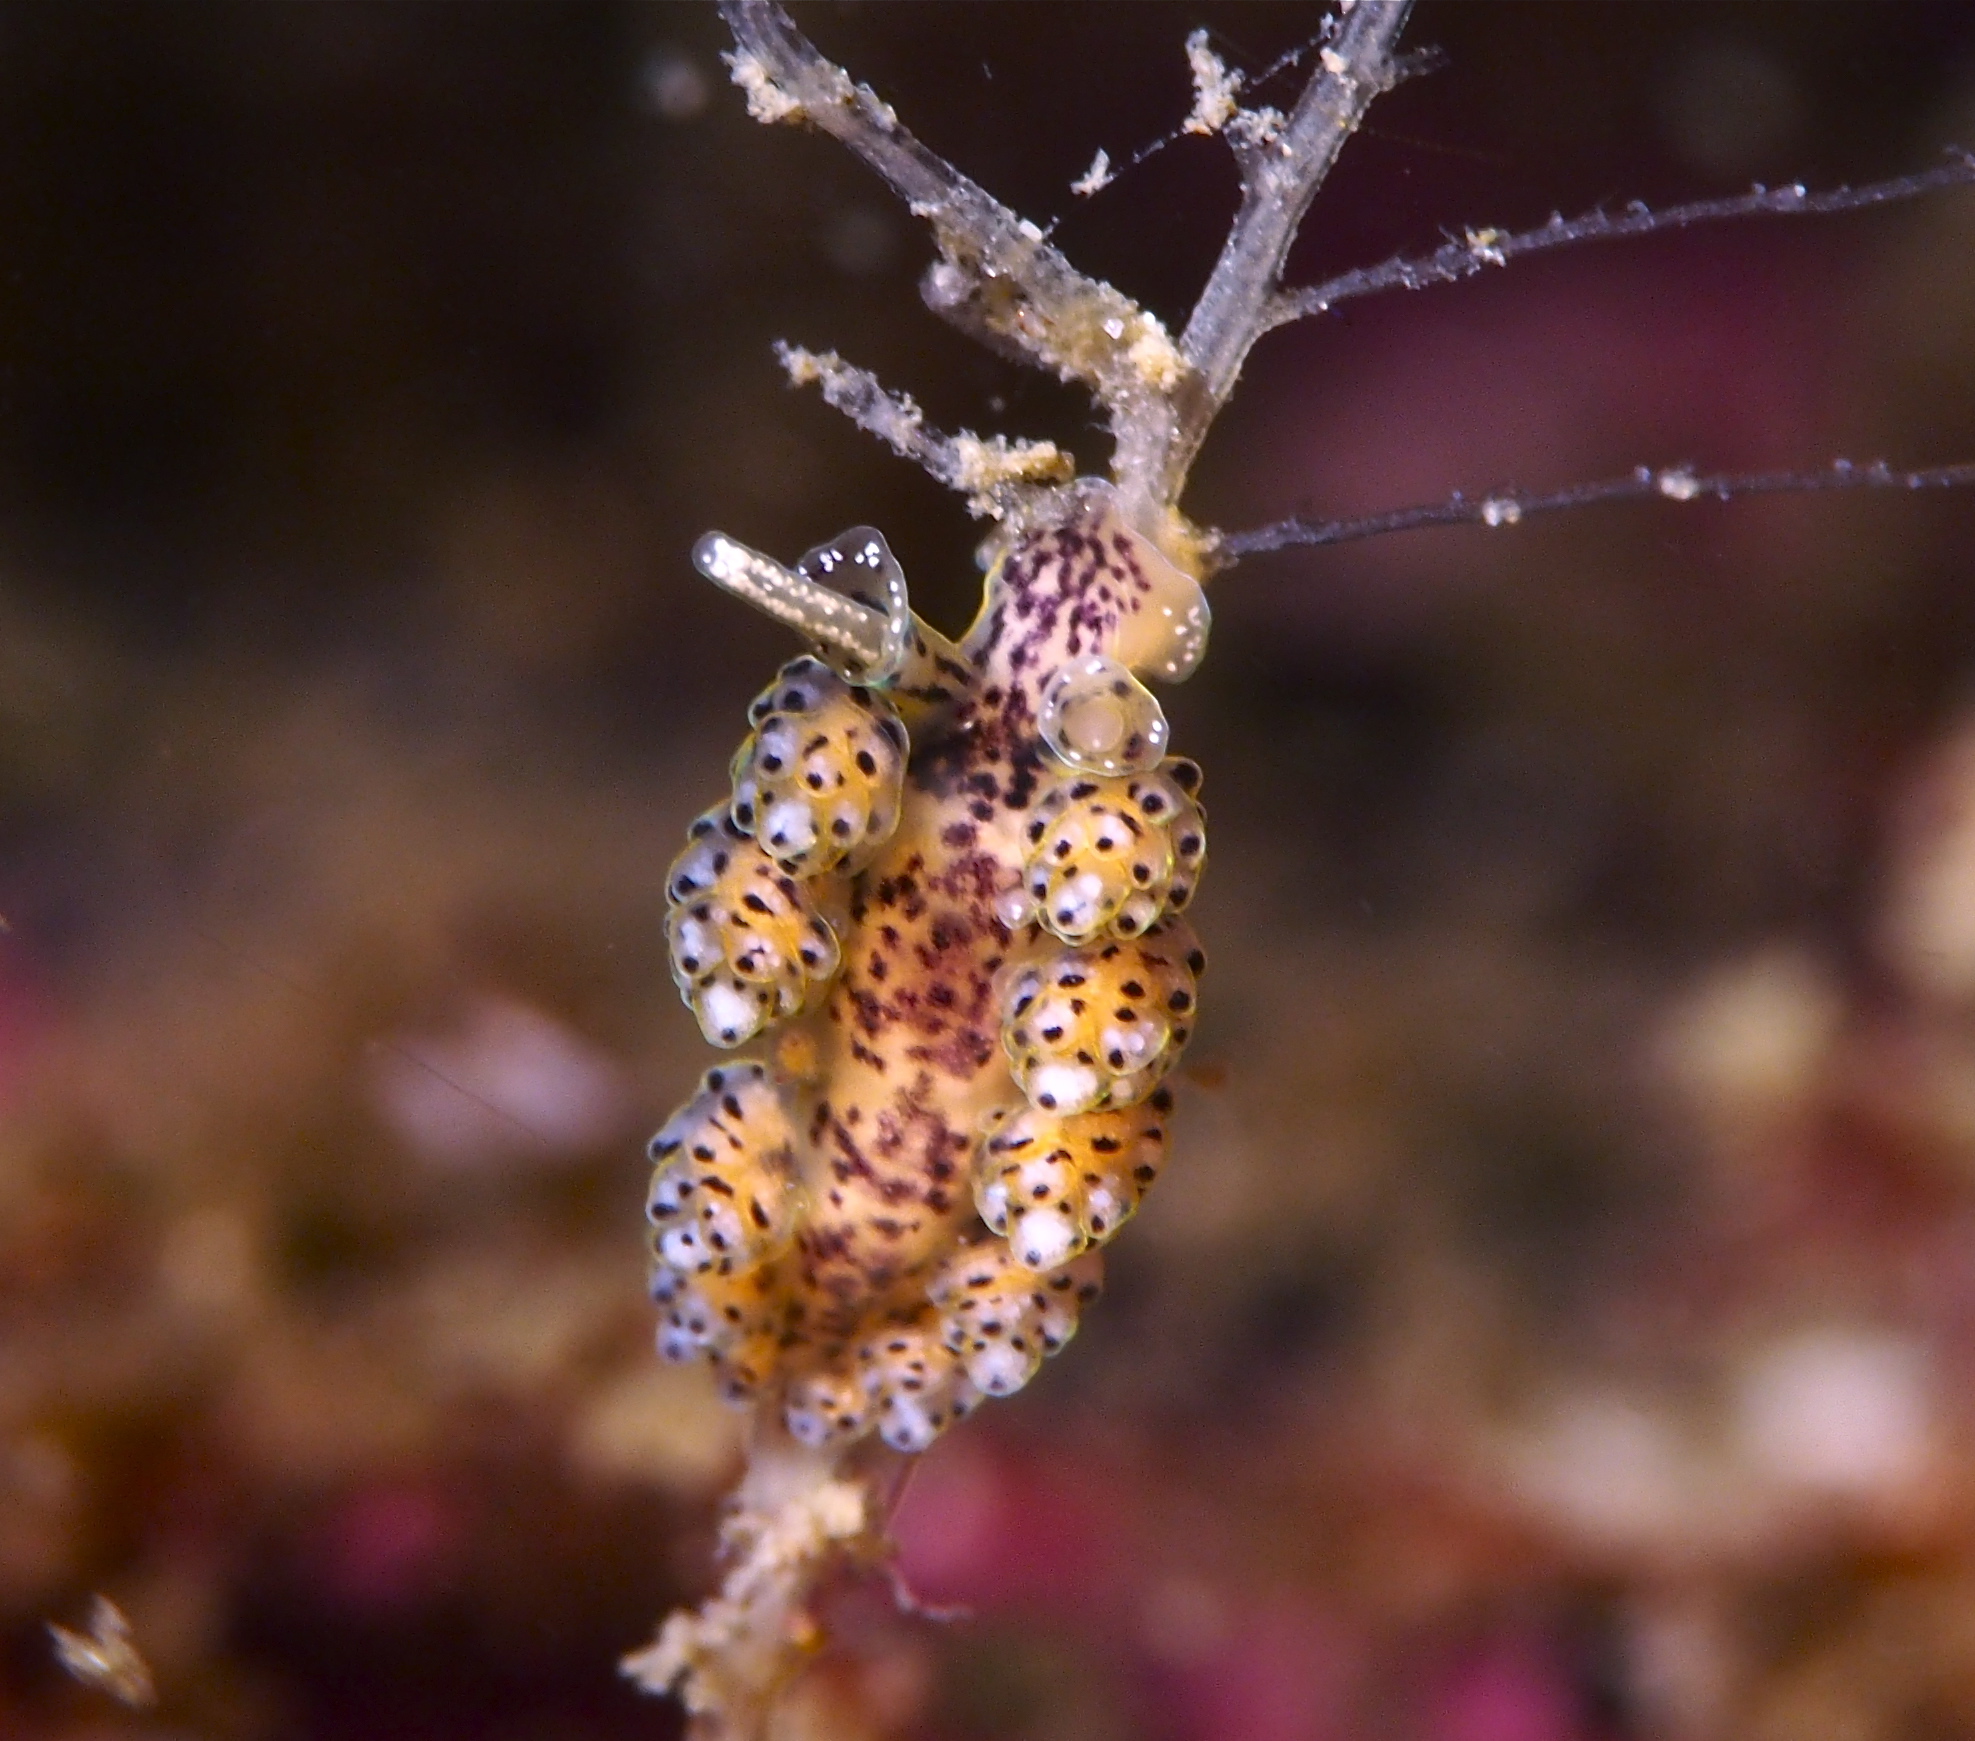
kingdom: Animalia
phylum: Mollusca
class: Gastropoda
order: Nudibranchia
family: Dotidae
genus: Doto
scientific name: Doto dunnei
